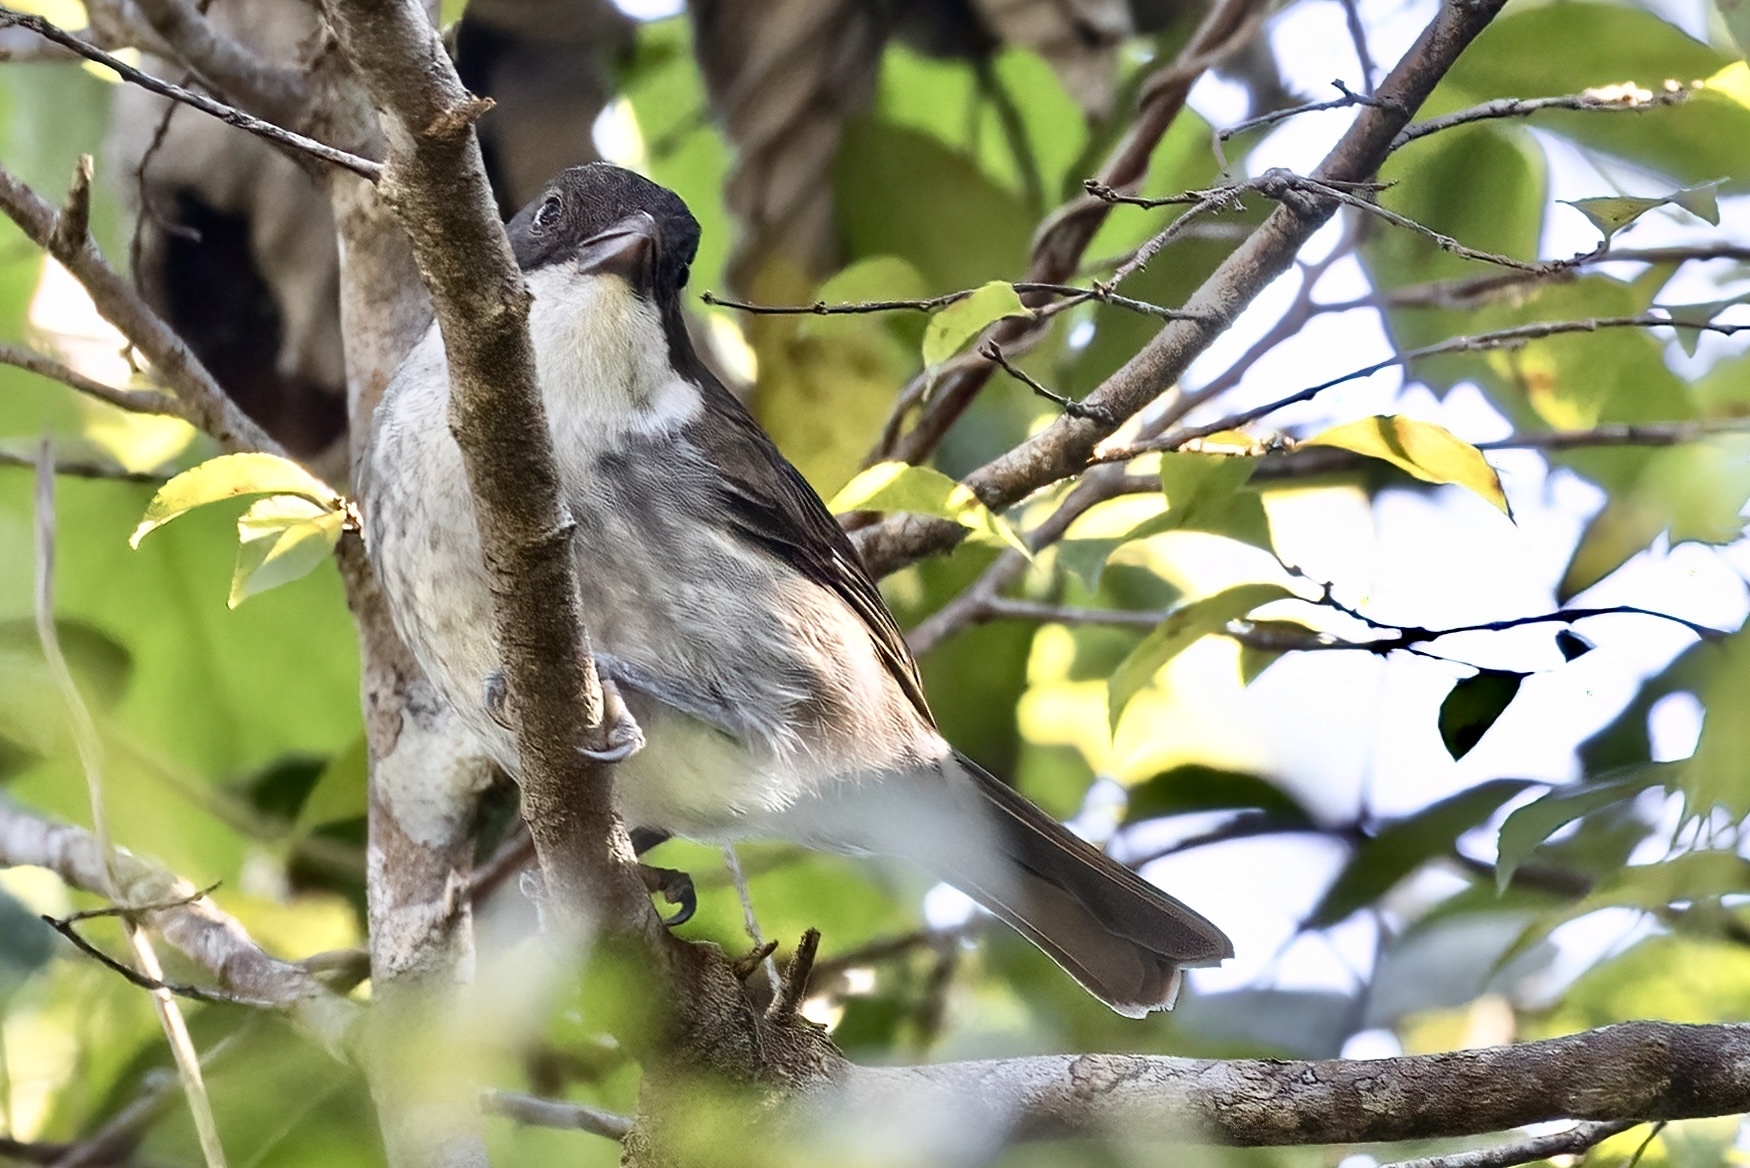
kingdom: Animalia
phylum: Chordata
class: Aves
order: Passeriformes
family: Nesospingidae
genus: Nesospingus
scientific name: Nesospingus speculiferus
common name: Puerto rican tanager
